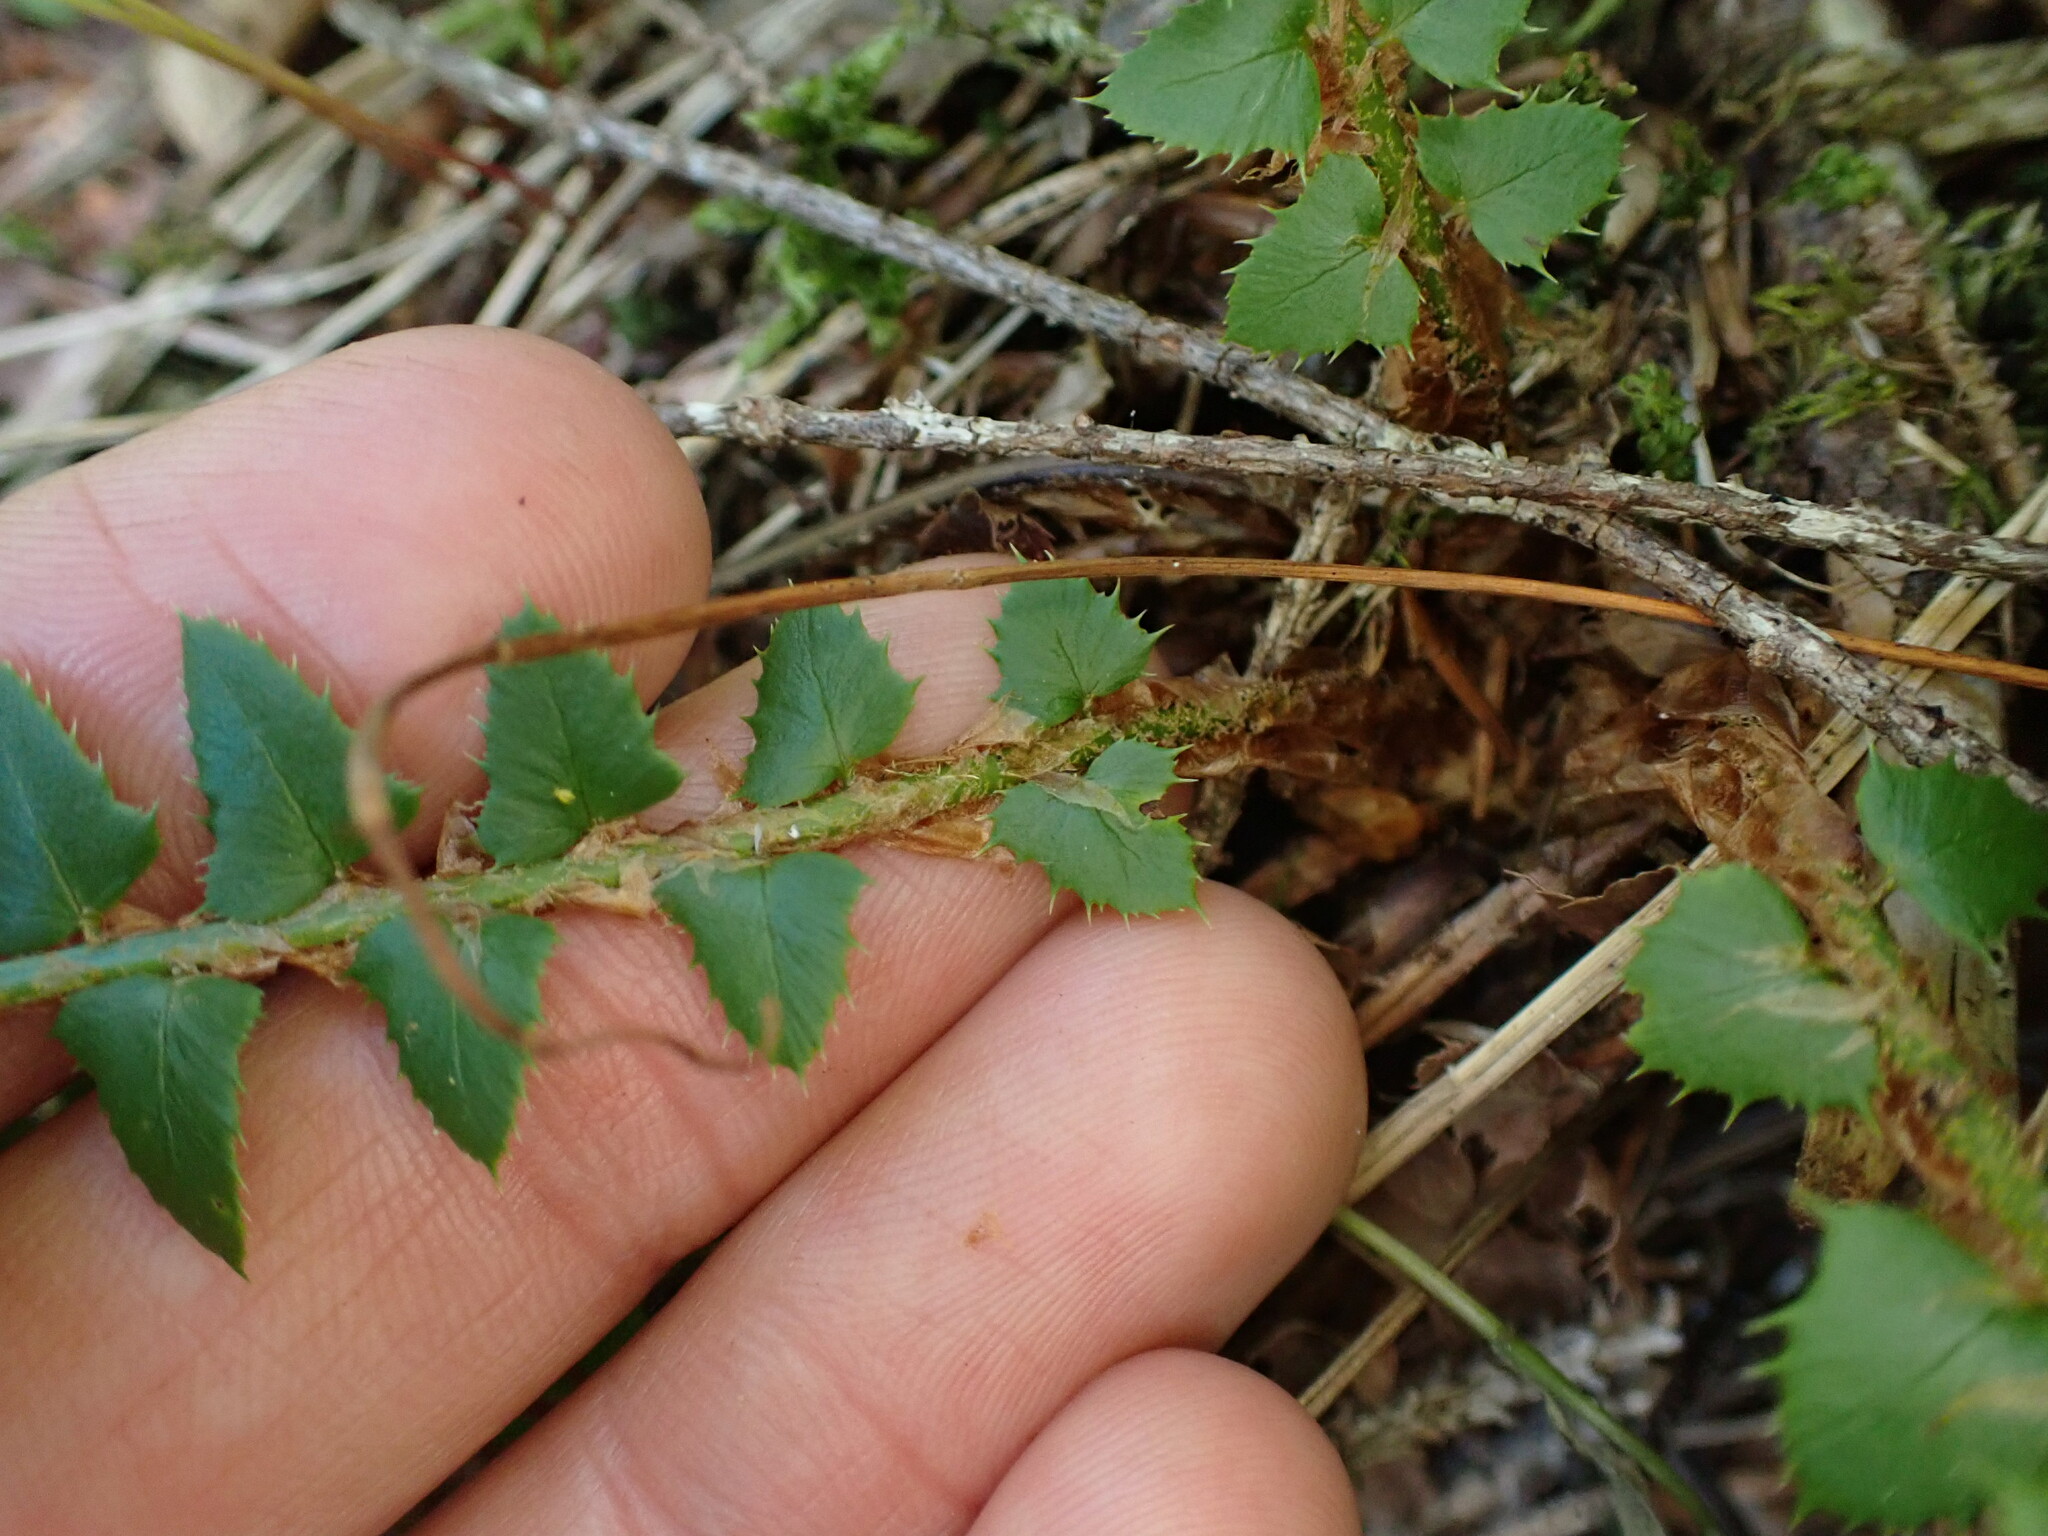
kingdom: Plantae
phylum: Tracheophyta
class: Polypodiopsida
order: Polypodiales
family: Dryopteridaceae
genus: Polystichum
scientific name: Polystichum lonchitis
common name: Holly fern
